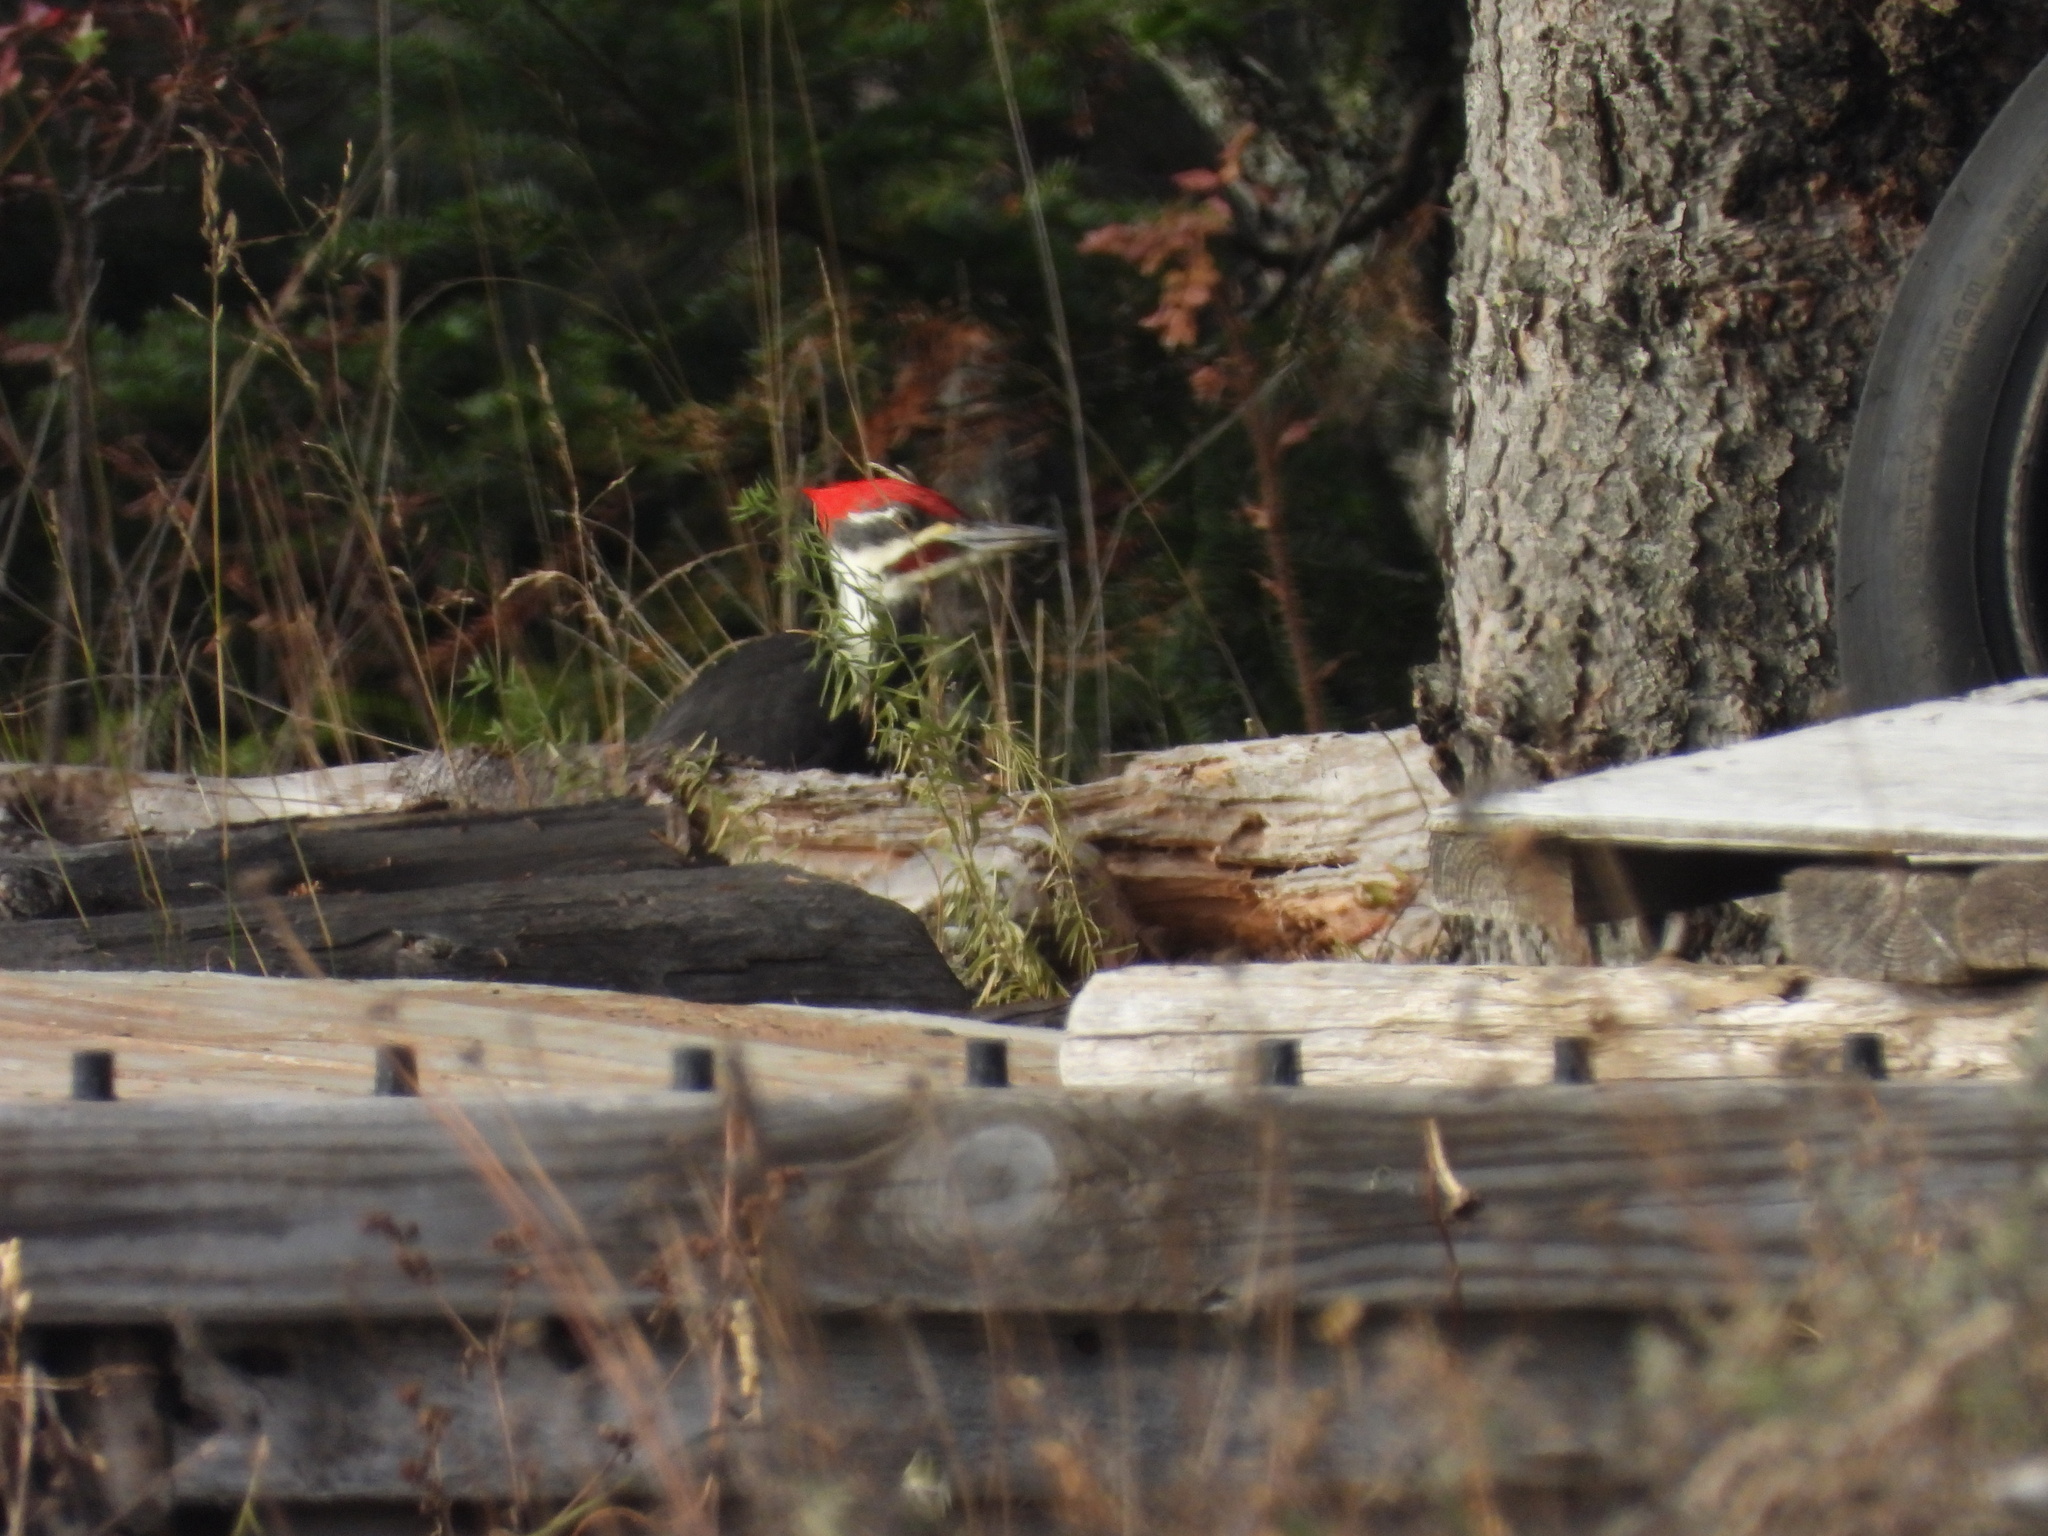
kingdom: Animalia
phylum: Chordata
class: Aves
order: Piciformes
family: Picidae
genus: Dryocopus
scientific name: Dryocopus pileatus
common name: Pileated woodpecker
